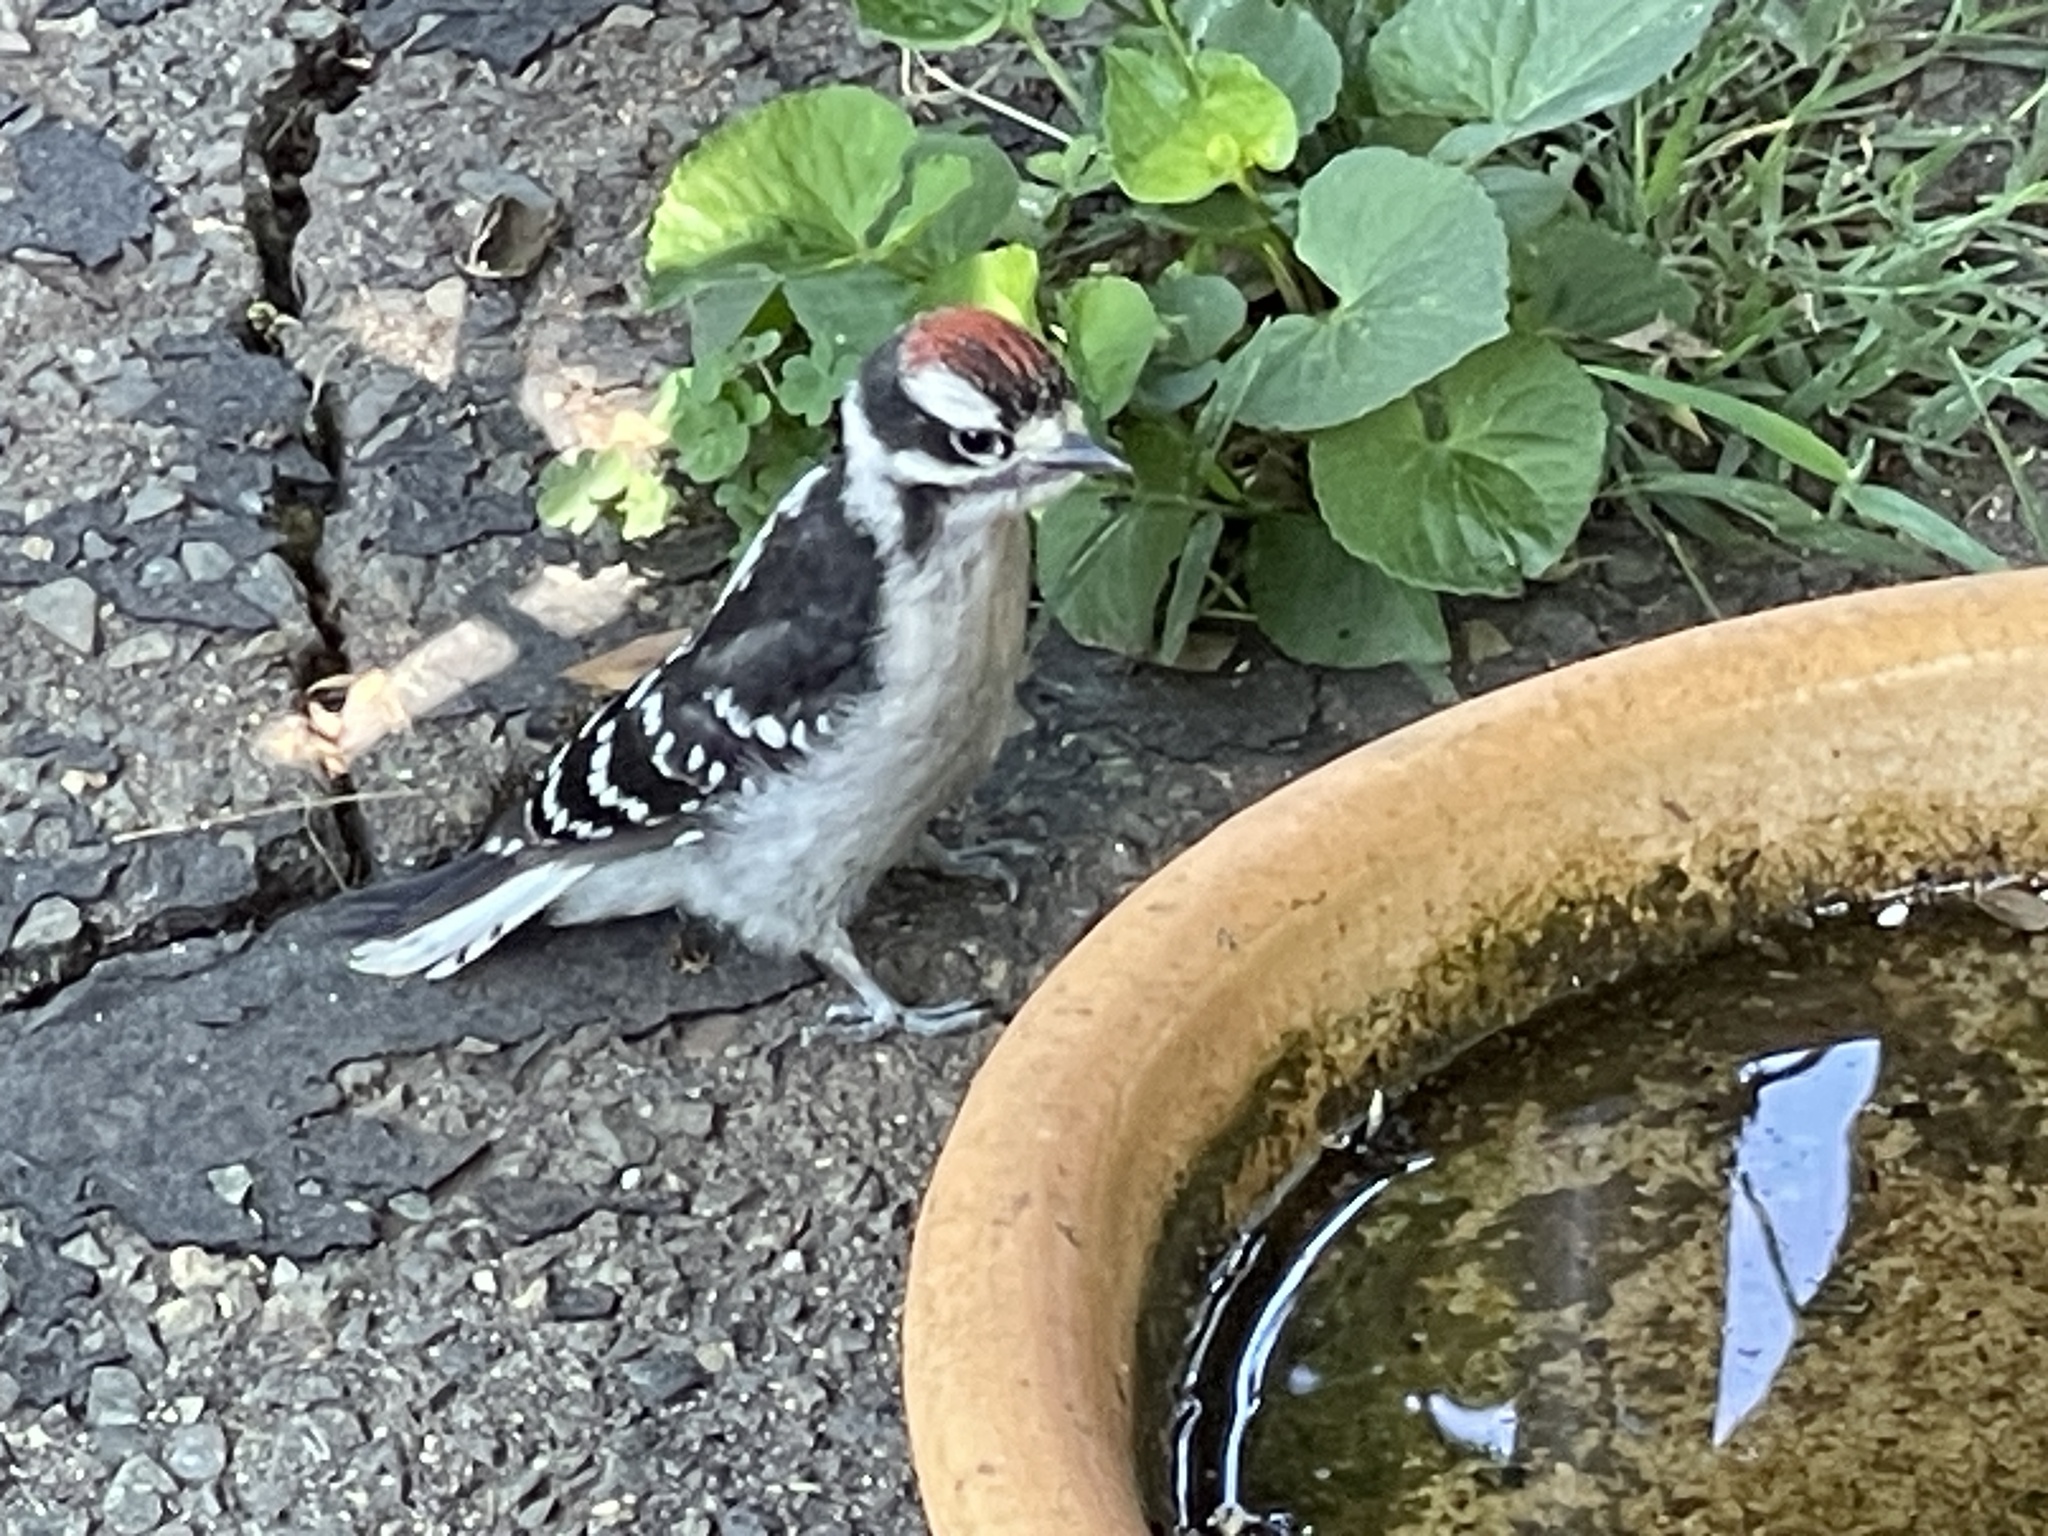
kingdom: Animalia
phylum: Chordata
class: Aves
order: Piciformes
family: Picidae
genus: Dryobates
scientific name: Dryobates pubescens
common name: Downy woodpecker
